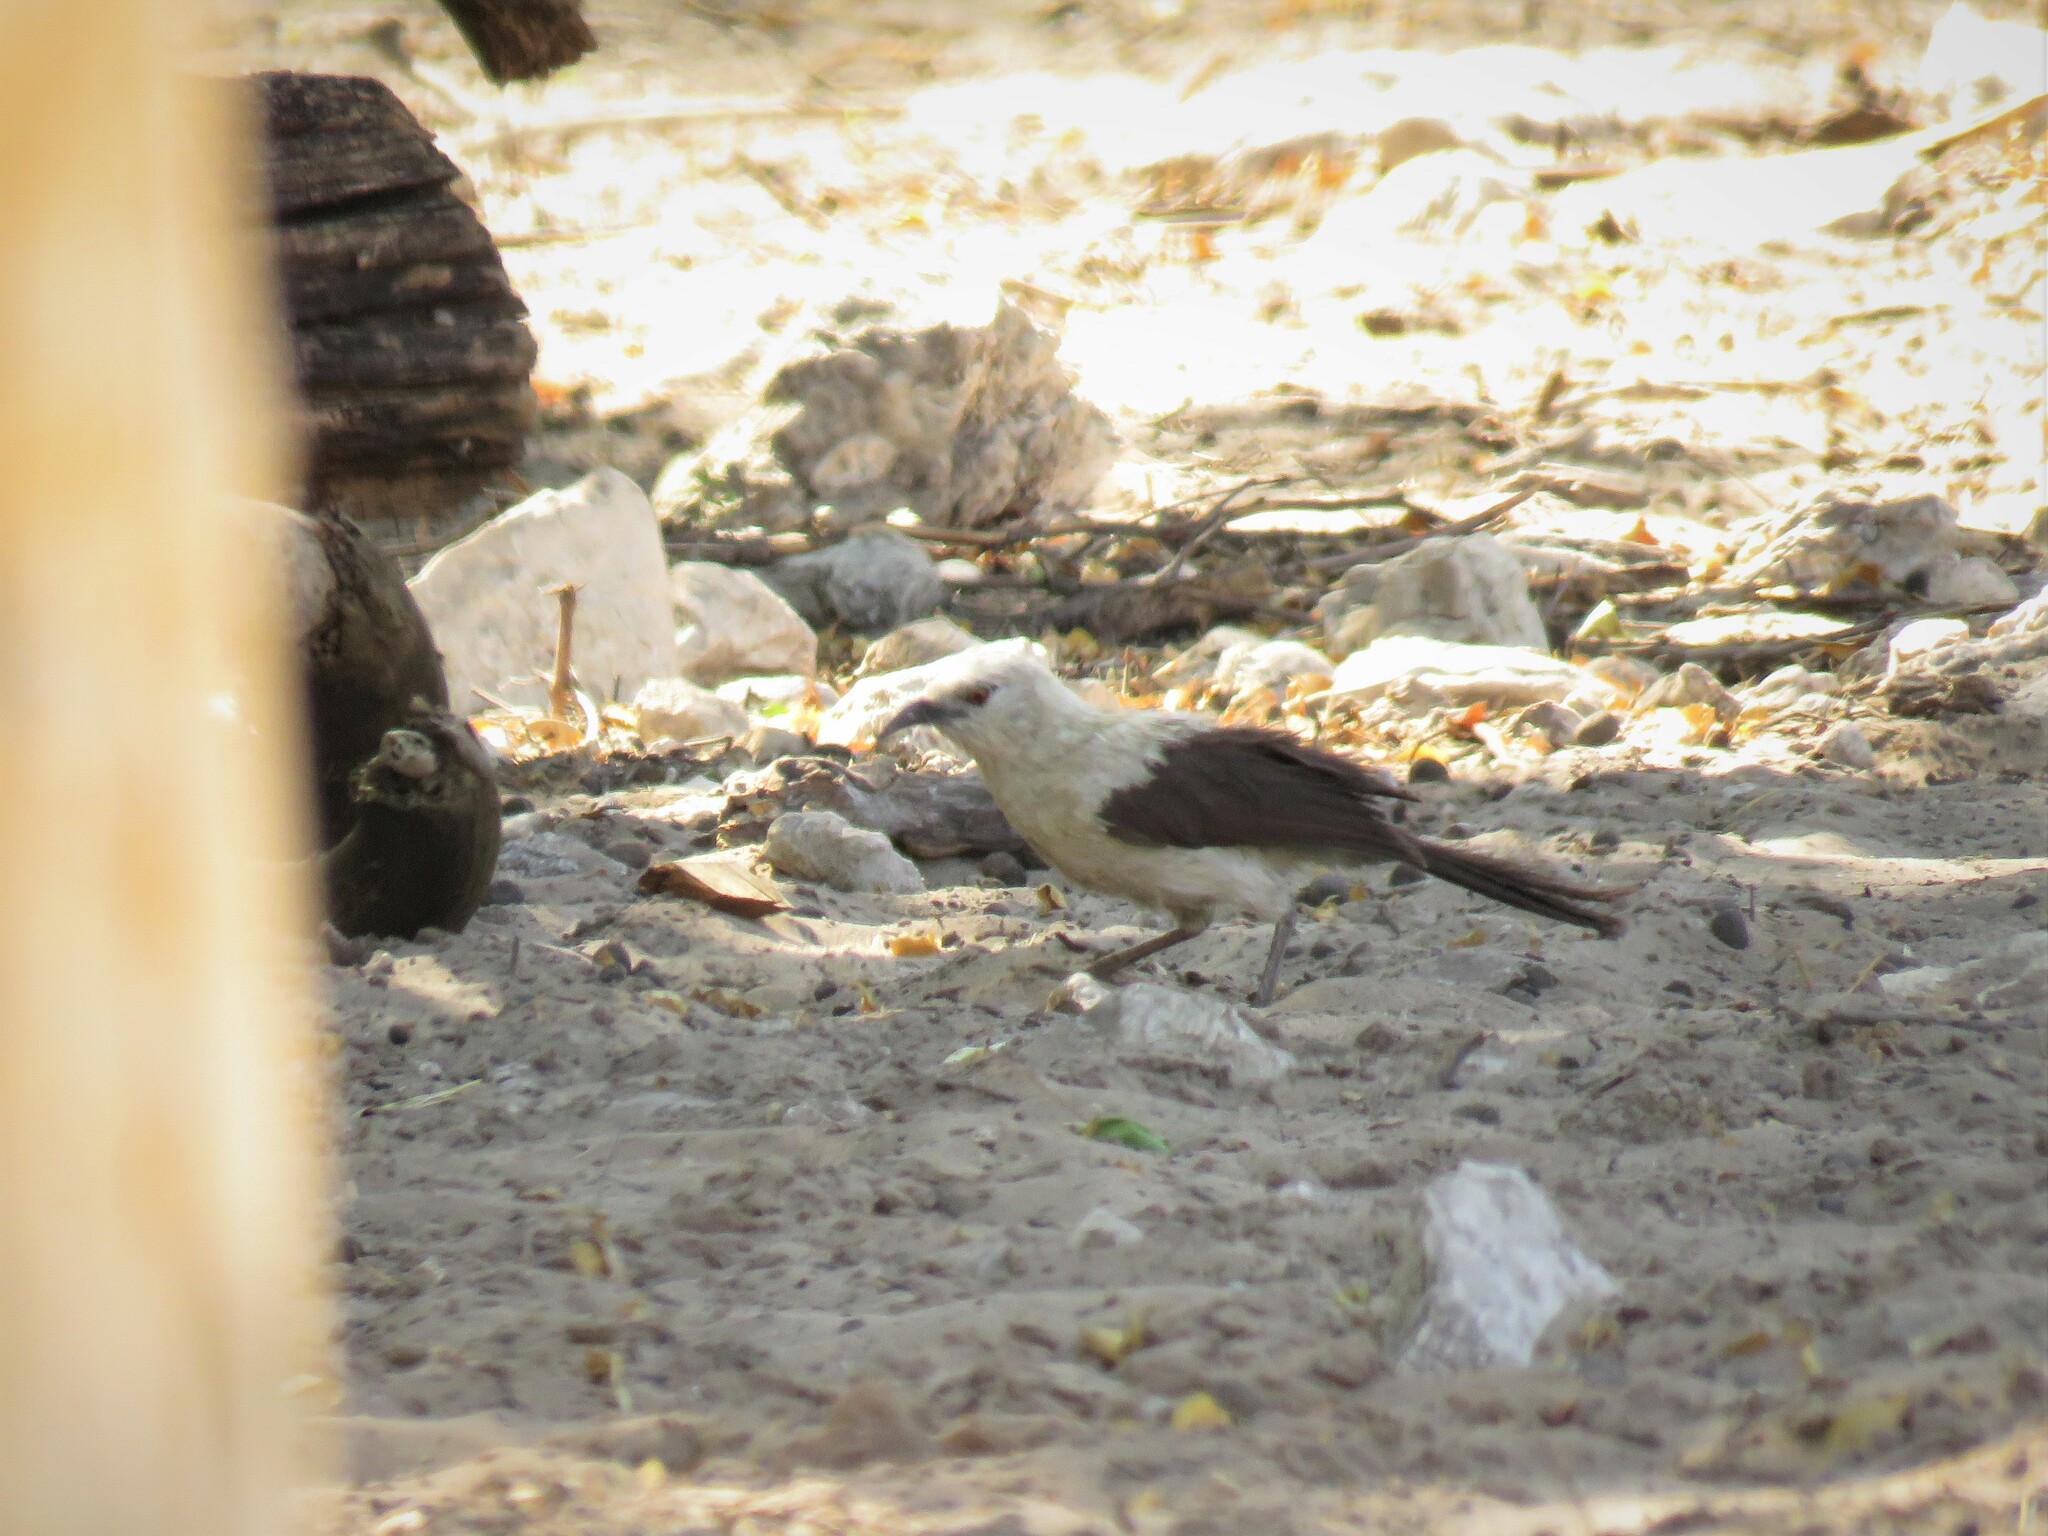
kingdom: Animalia
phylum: Chordata
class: Aves
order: Passeriformes
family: Leiothrichidae
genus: Turdoides
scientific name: Turdoides bicolor
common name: Southern pied babbler
